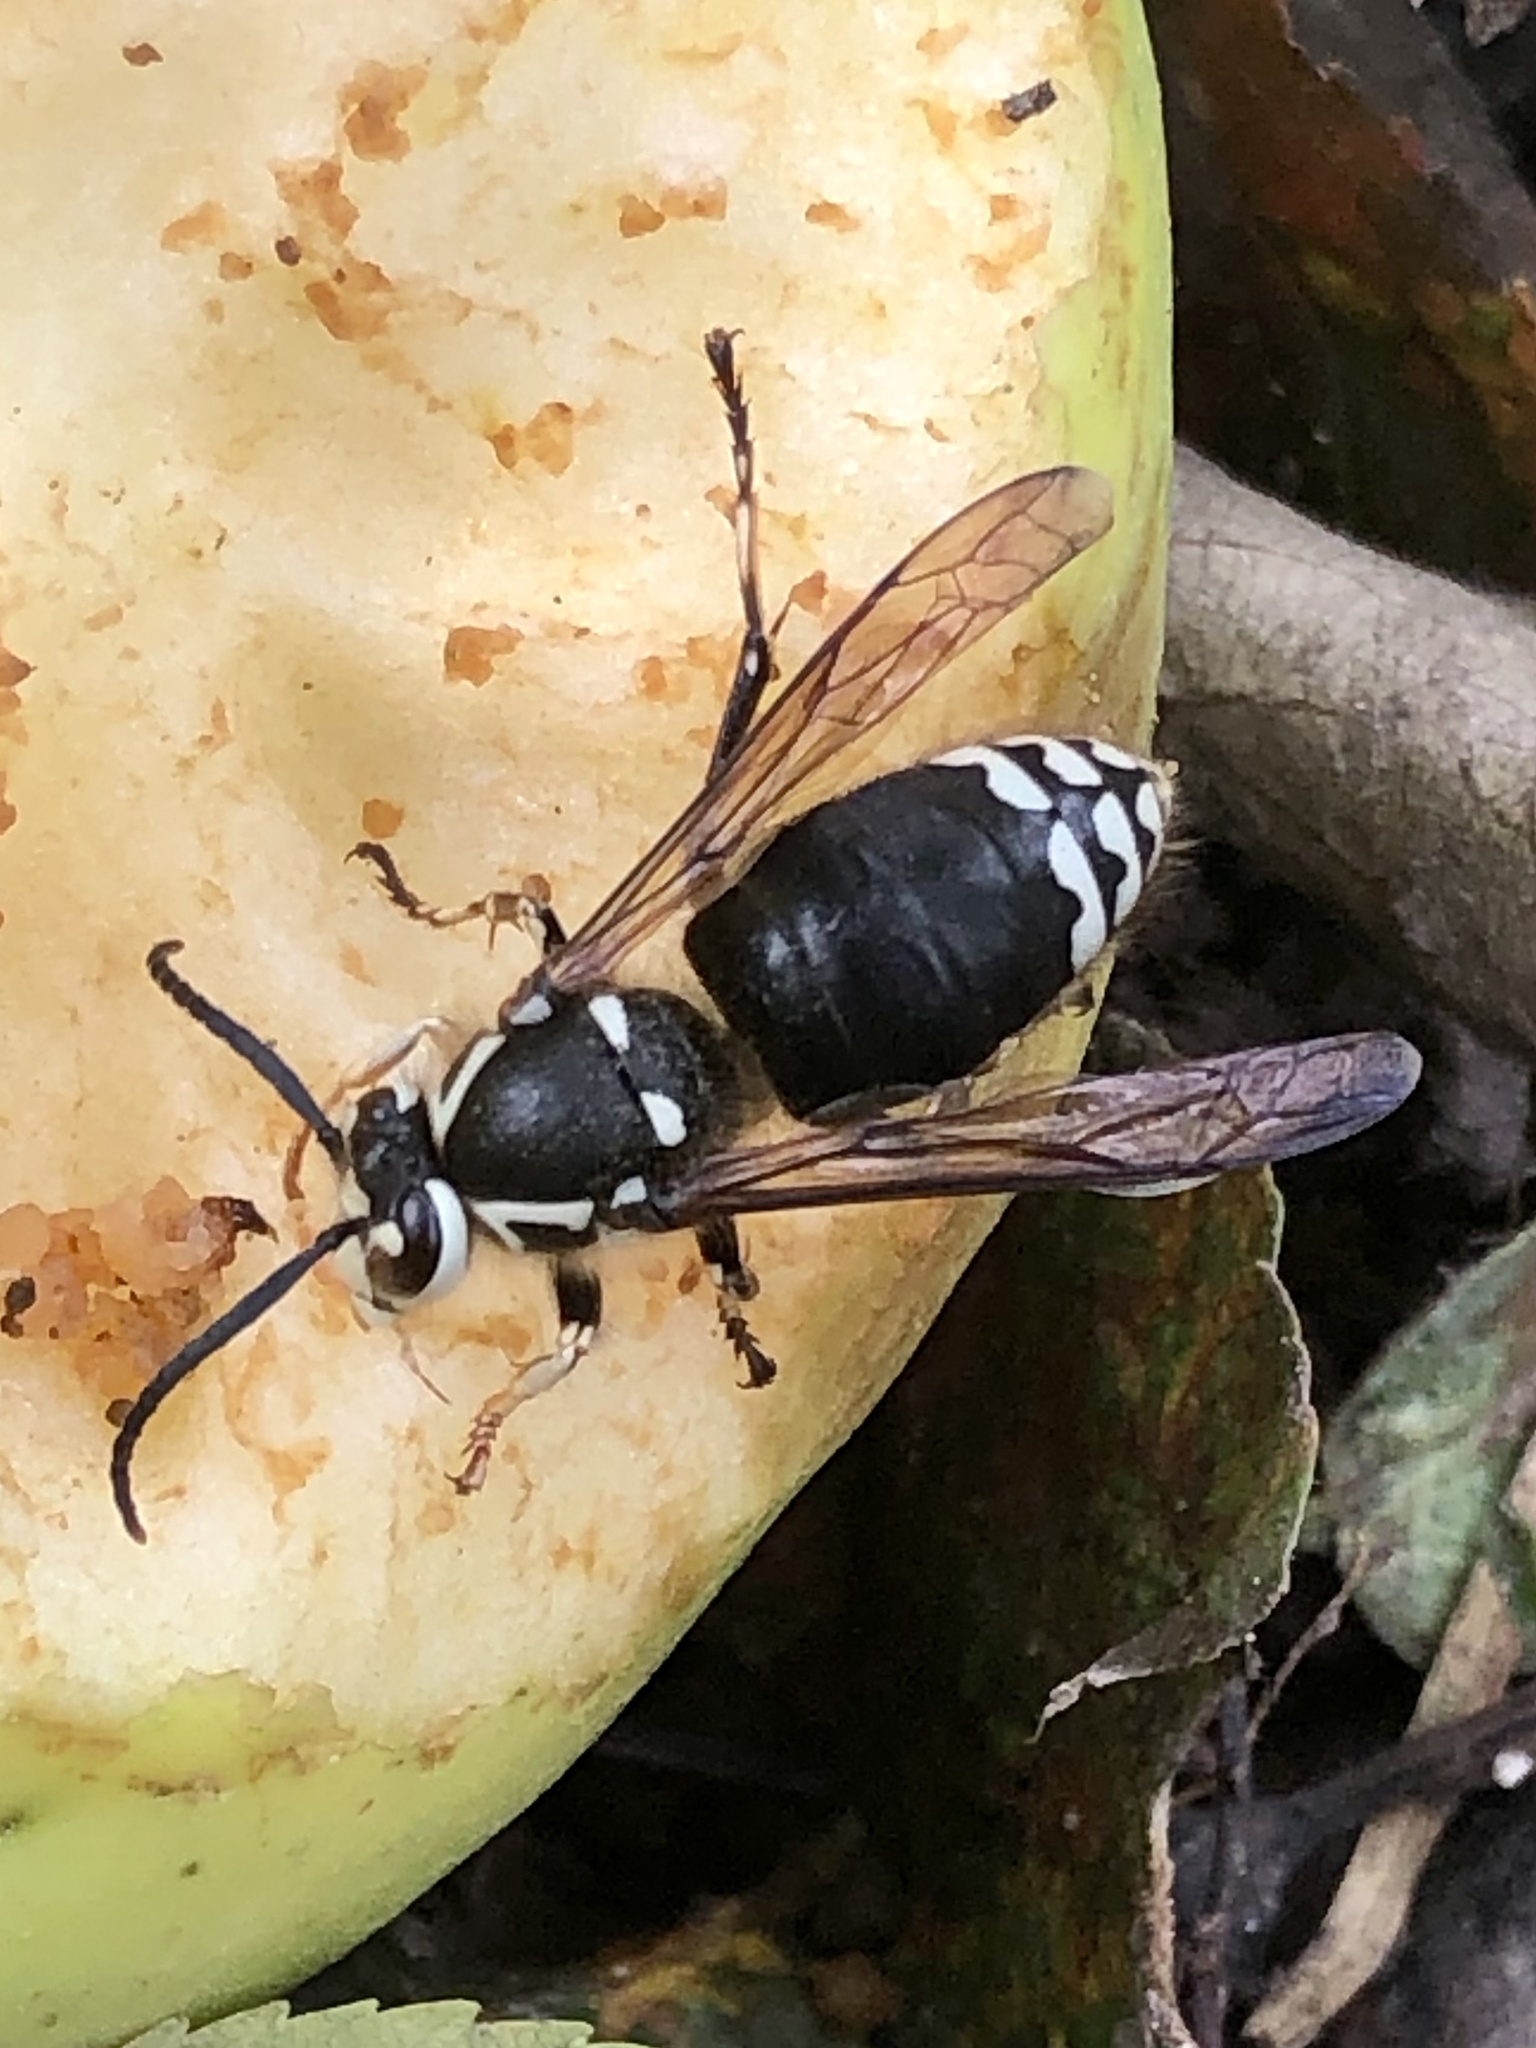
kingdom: Animalia
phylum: Arthropoda
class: Insecta
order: Hymenoptera
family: Vespidae
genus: Dolichovespula
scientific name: Dolichovespula maculata
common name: Bald-faced hornet
